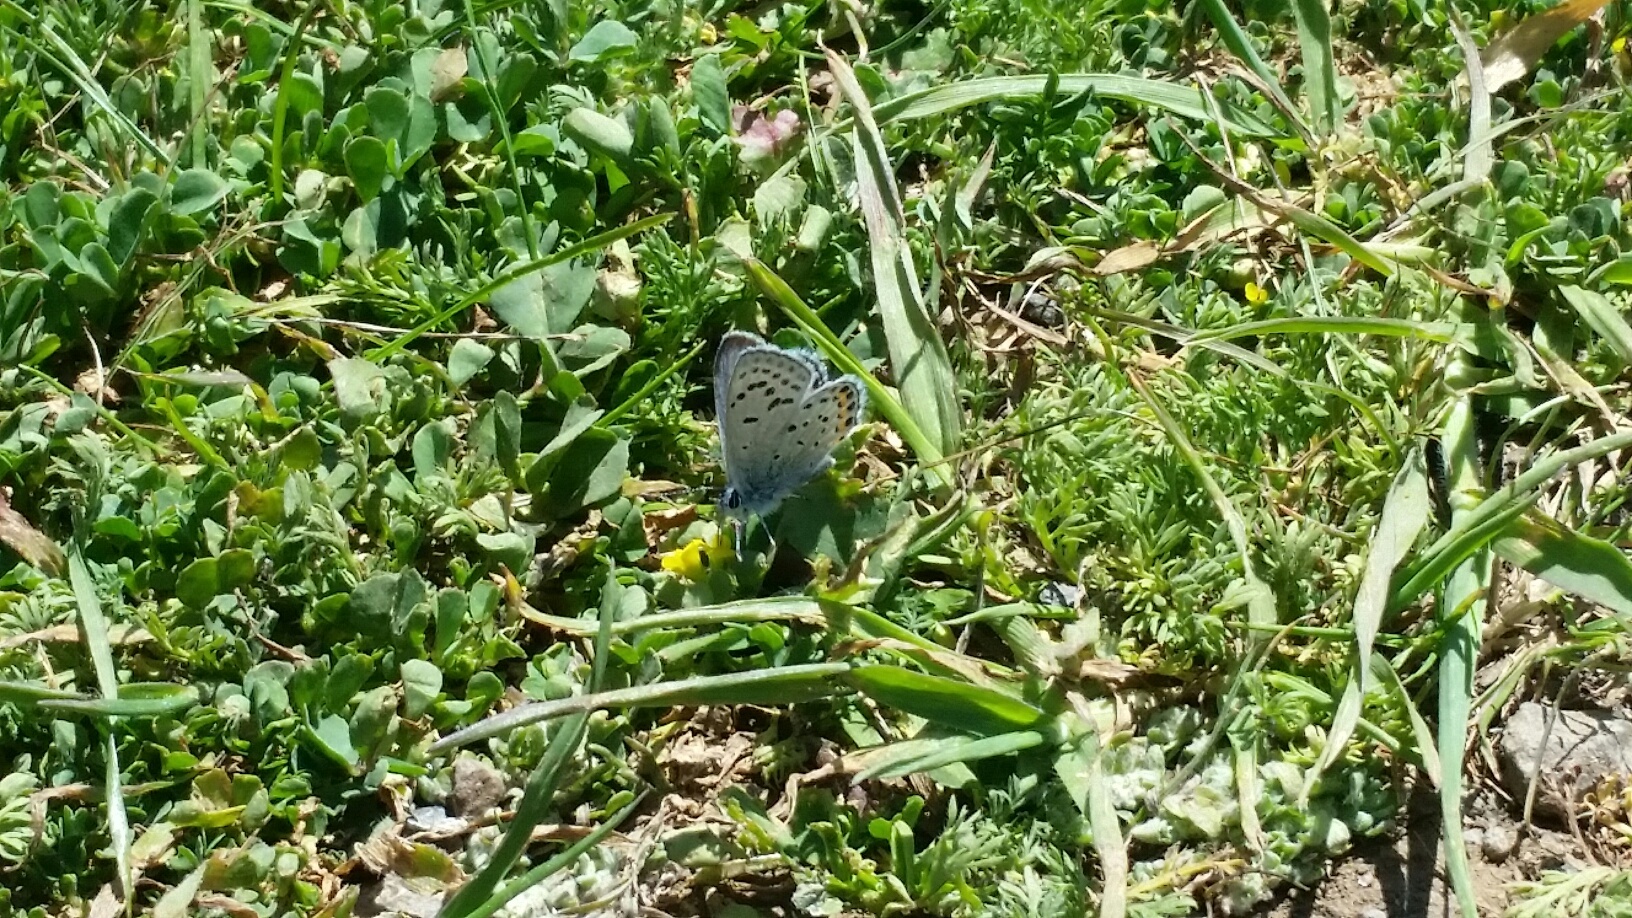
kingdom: Animalia
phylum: Arthropoda
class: Insecta
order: Lepidoptera
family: Lycaenidae
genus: Icaricia
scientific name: Icaricia acmon
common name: Acmon blue
